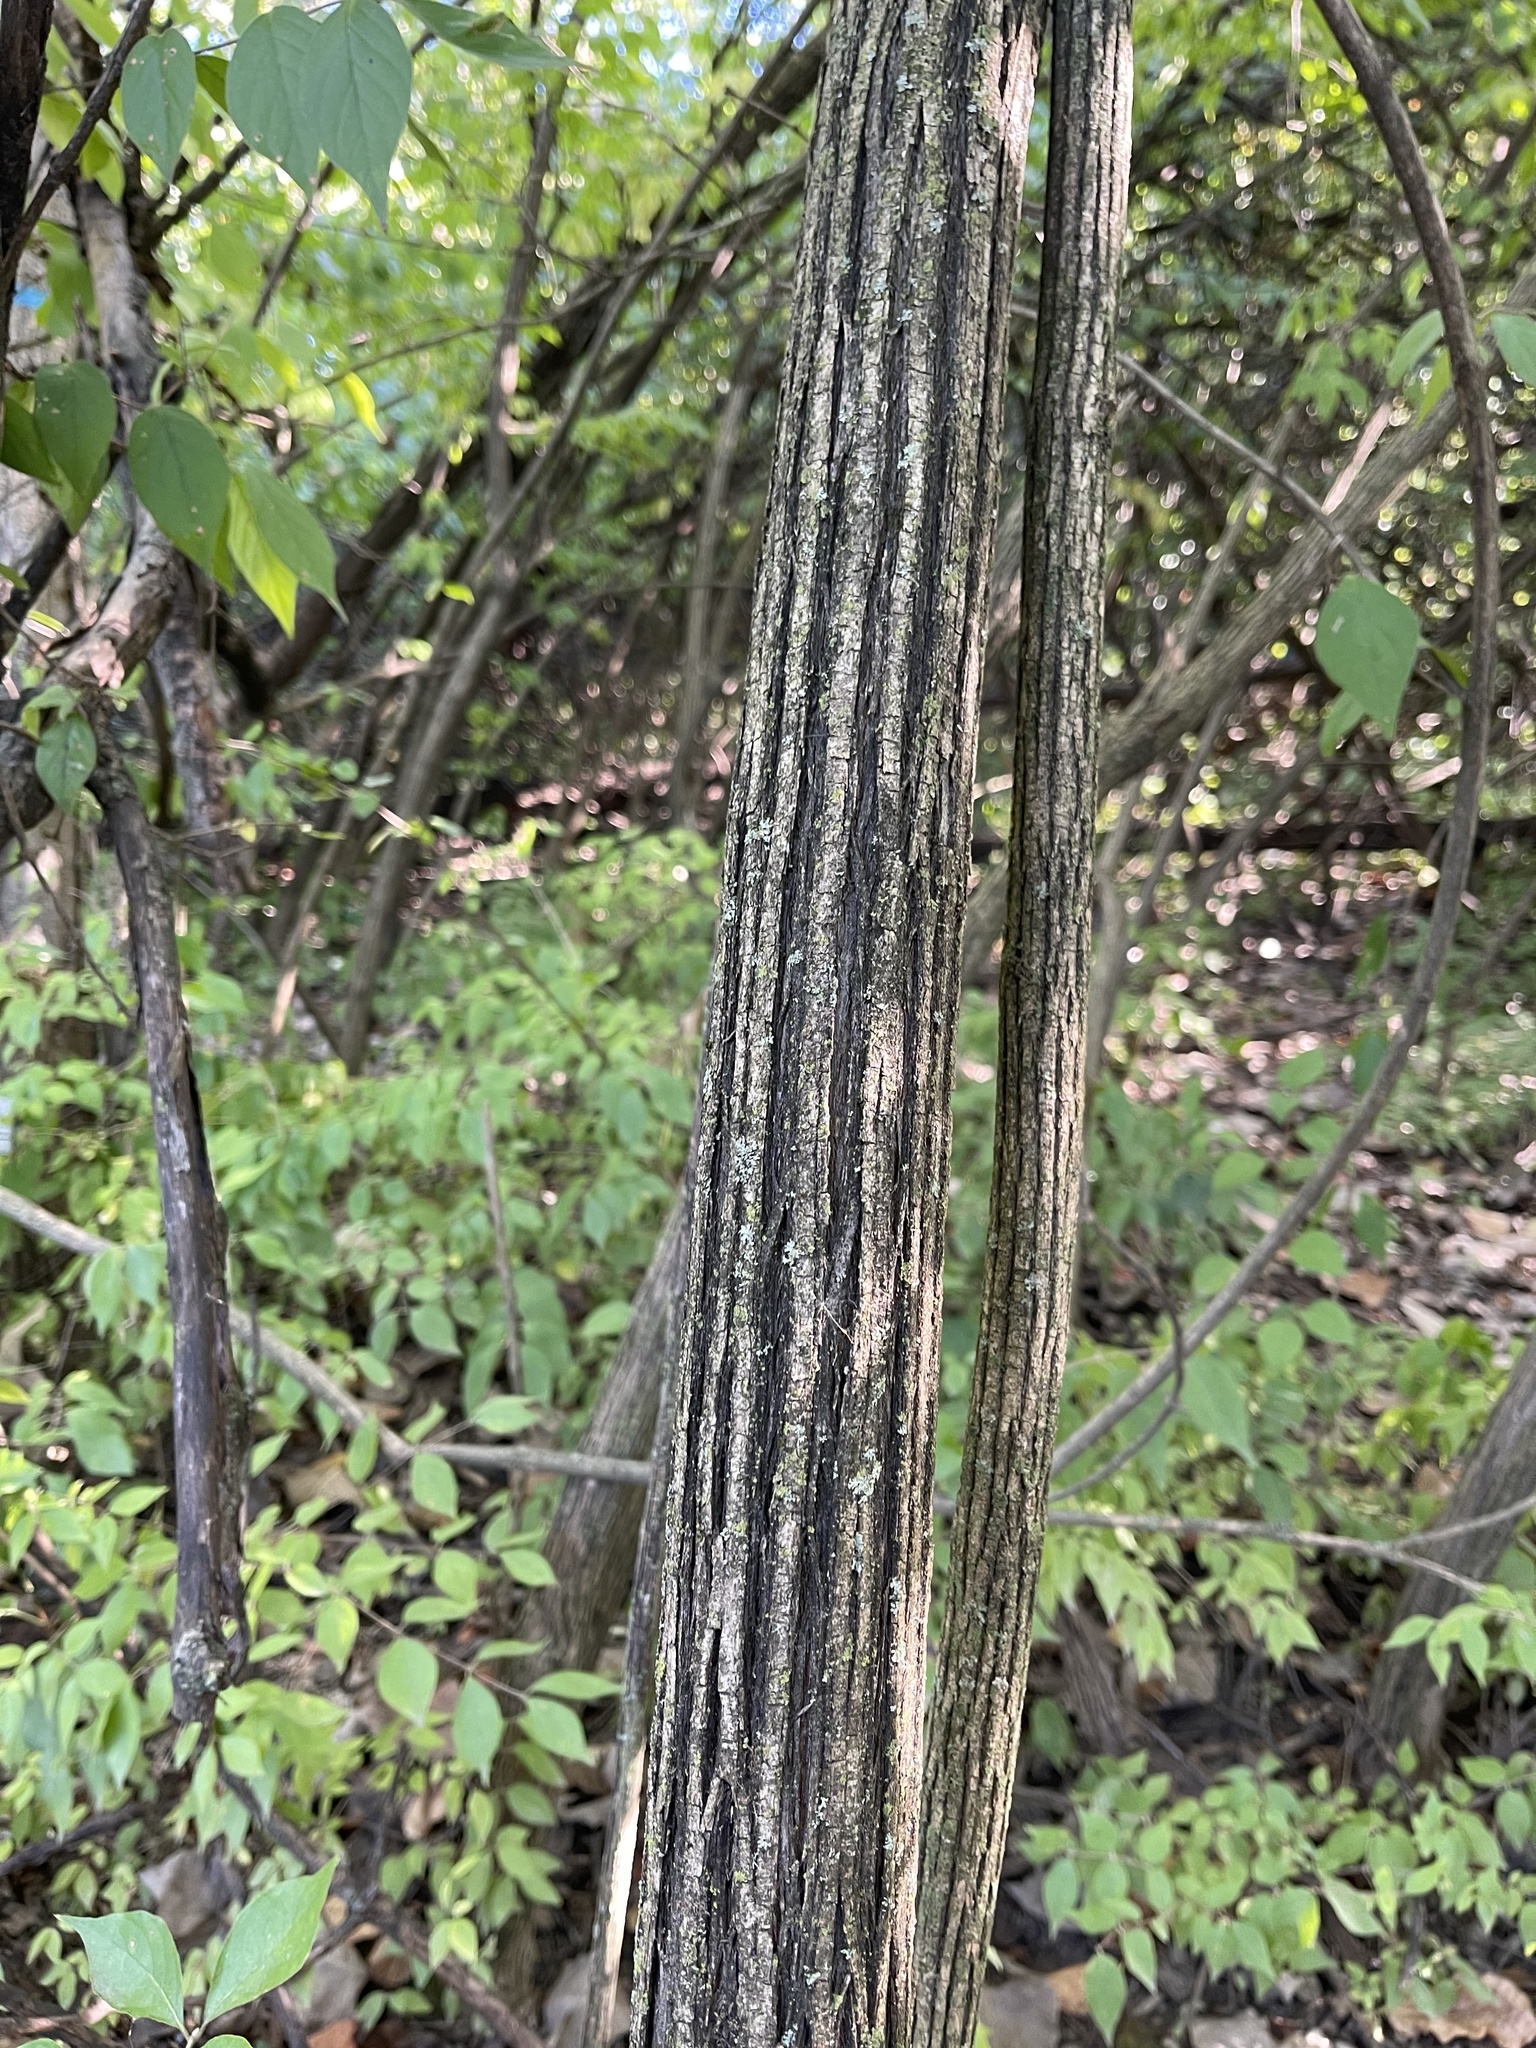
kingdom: Plantae
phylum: Tracheophyta
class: Magnoliopsida
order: Dipsacales
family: Caprifoliaceae
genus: Lonicera
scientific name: Lonicera maackii
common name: Amur honeysuckle
